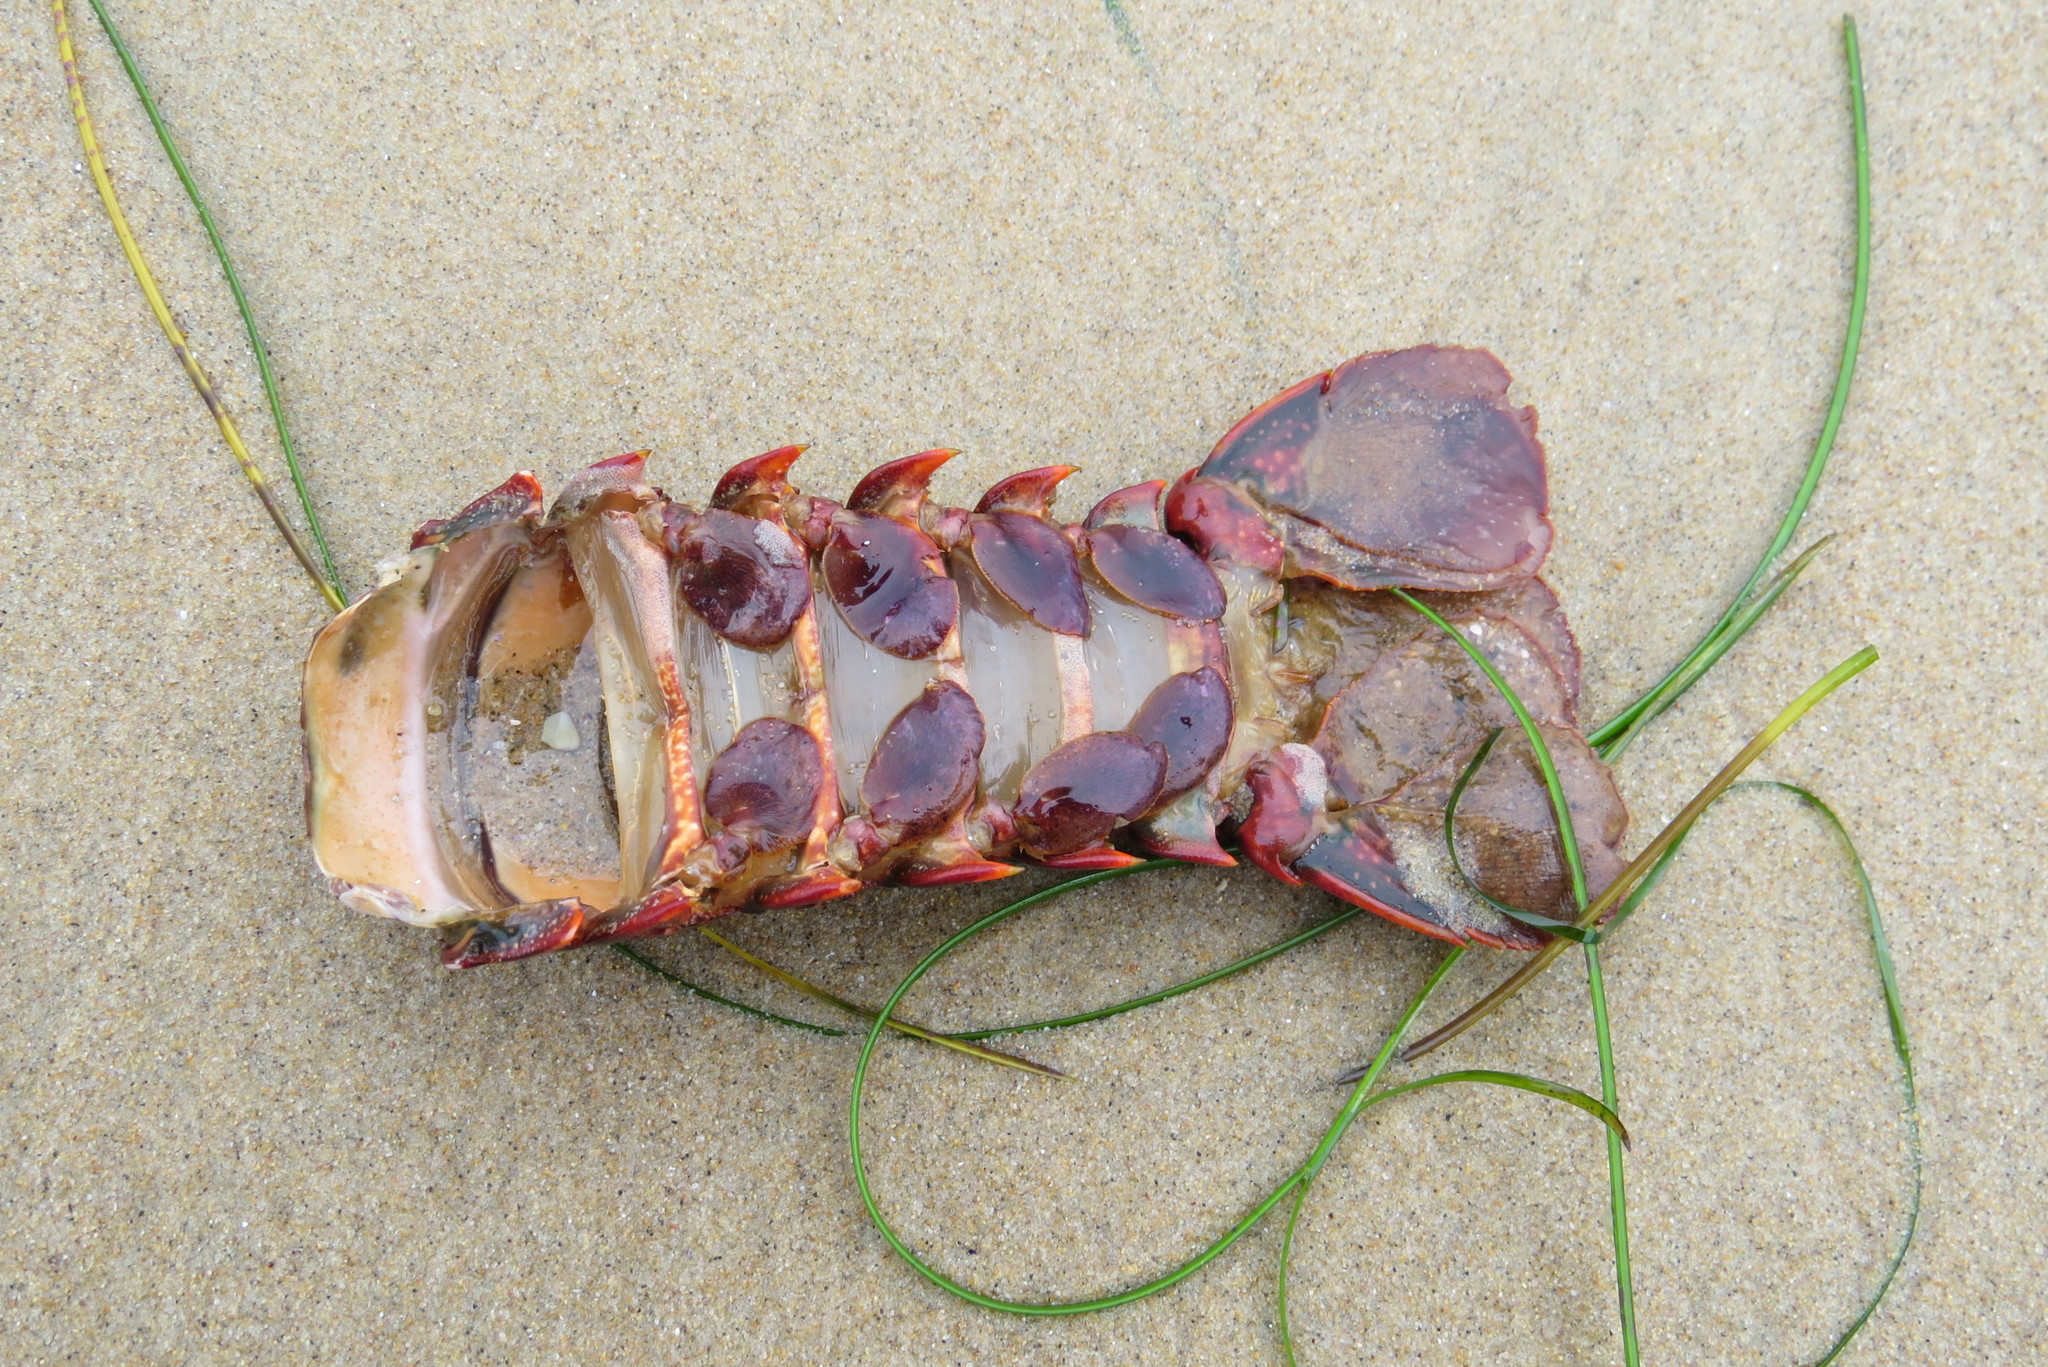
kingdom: Animalia
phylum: Arthropoda
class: Malacostraca
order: Decapoda
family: Palinuridae
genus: Panulirus
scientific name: Panulirus interruptus
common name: California spiny lobster
